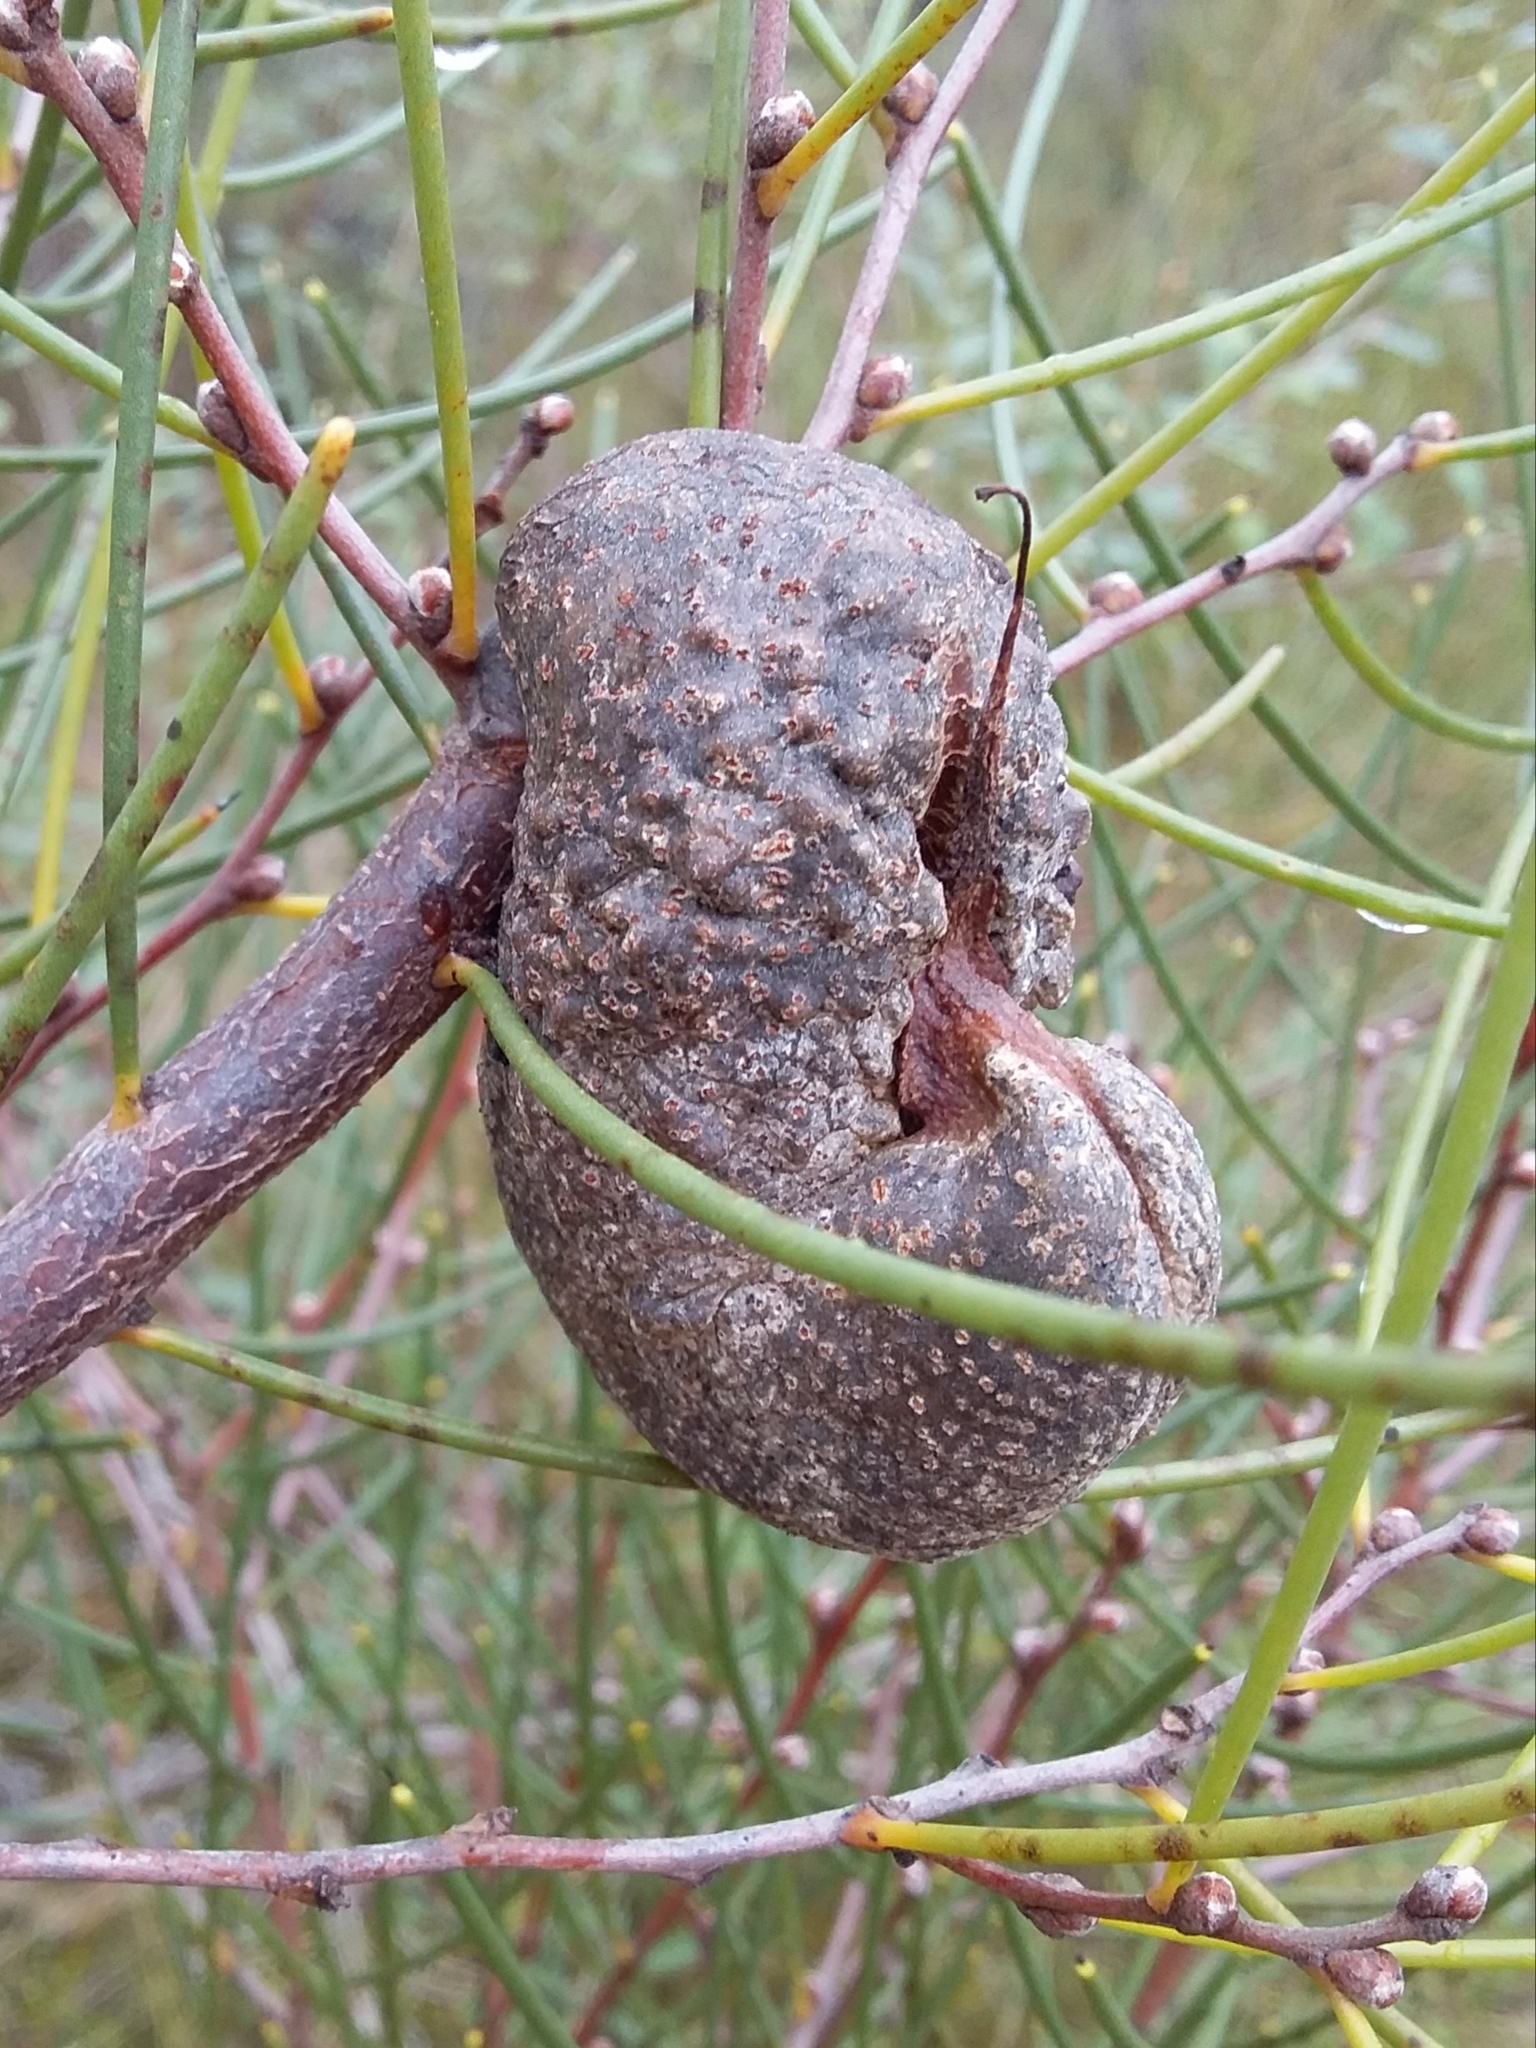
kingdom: Plantae
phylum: Tracheophyta
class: Magnoliopsida
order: Proteales
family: Proteaceae
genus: Hakea
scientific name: Hakea rostrata
